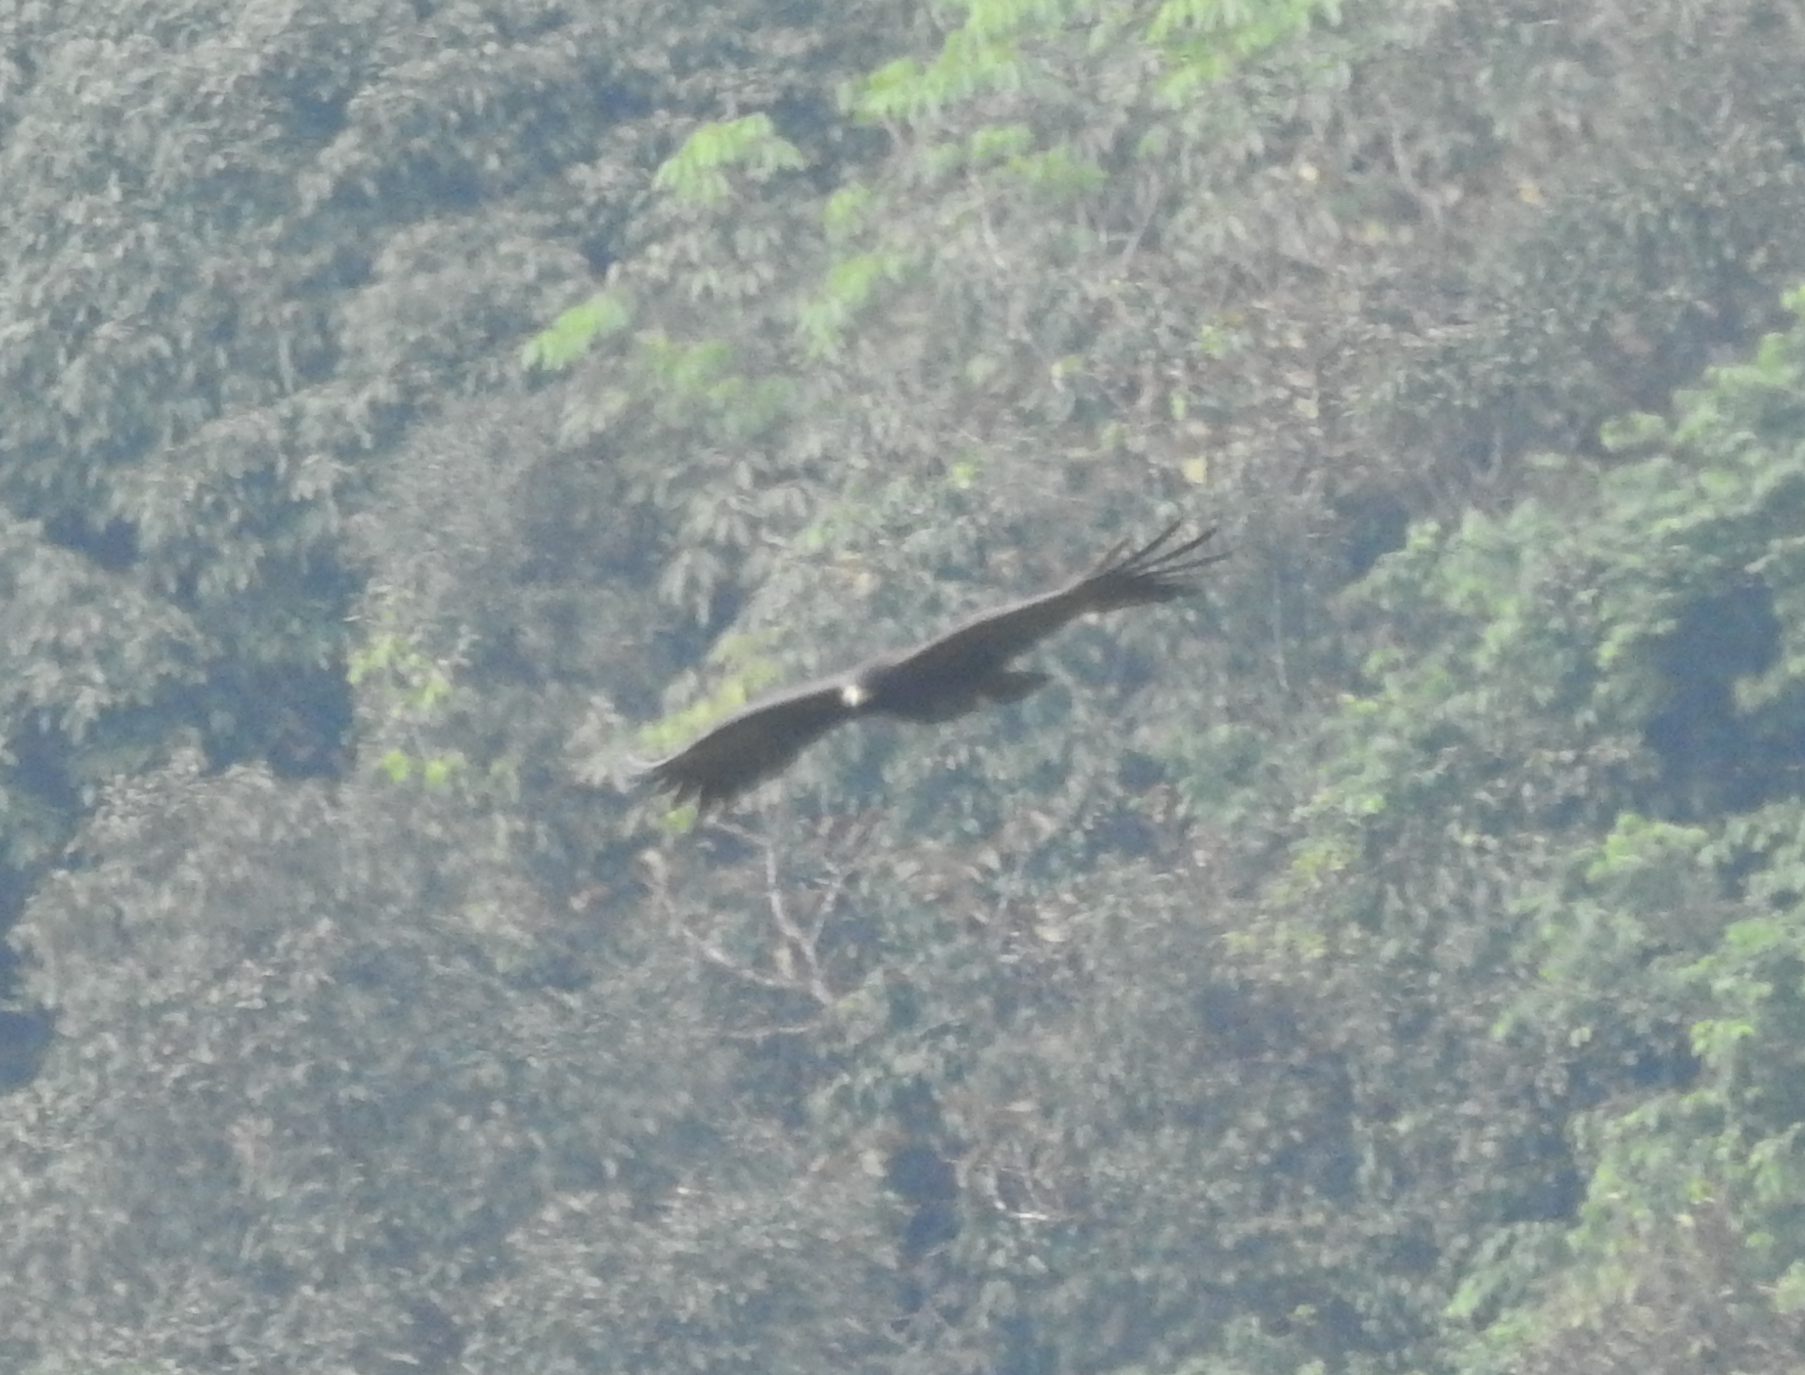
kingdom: Animalia
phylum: Chordata
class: Aves
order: Accipitriformes
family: Accipitridae
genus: Ictinaetus
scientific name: Ictinaetus malayensis
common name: Black eagle
